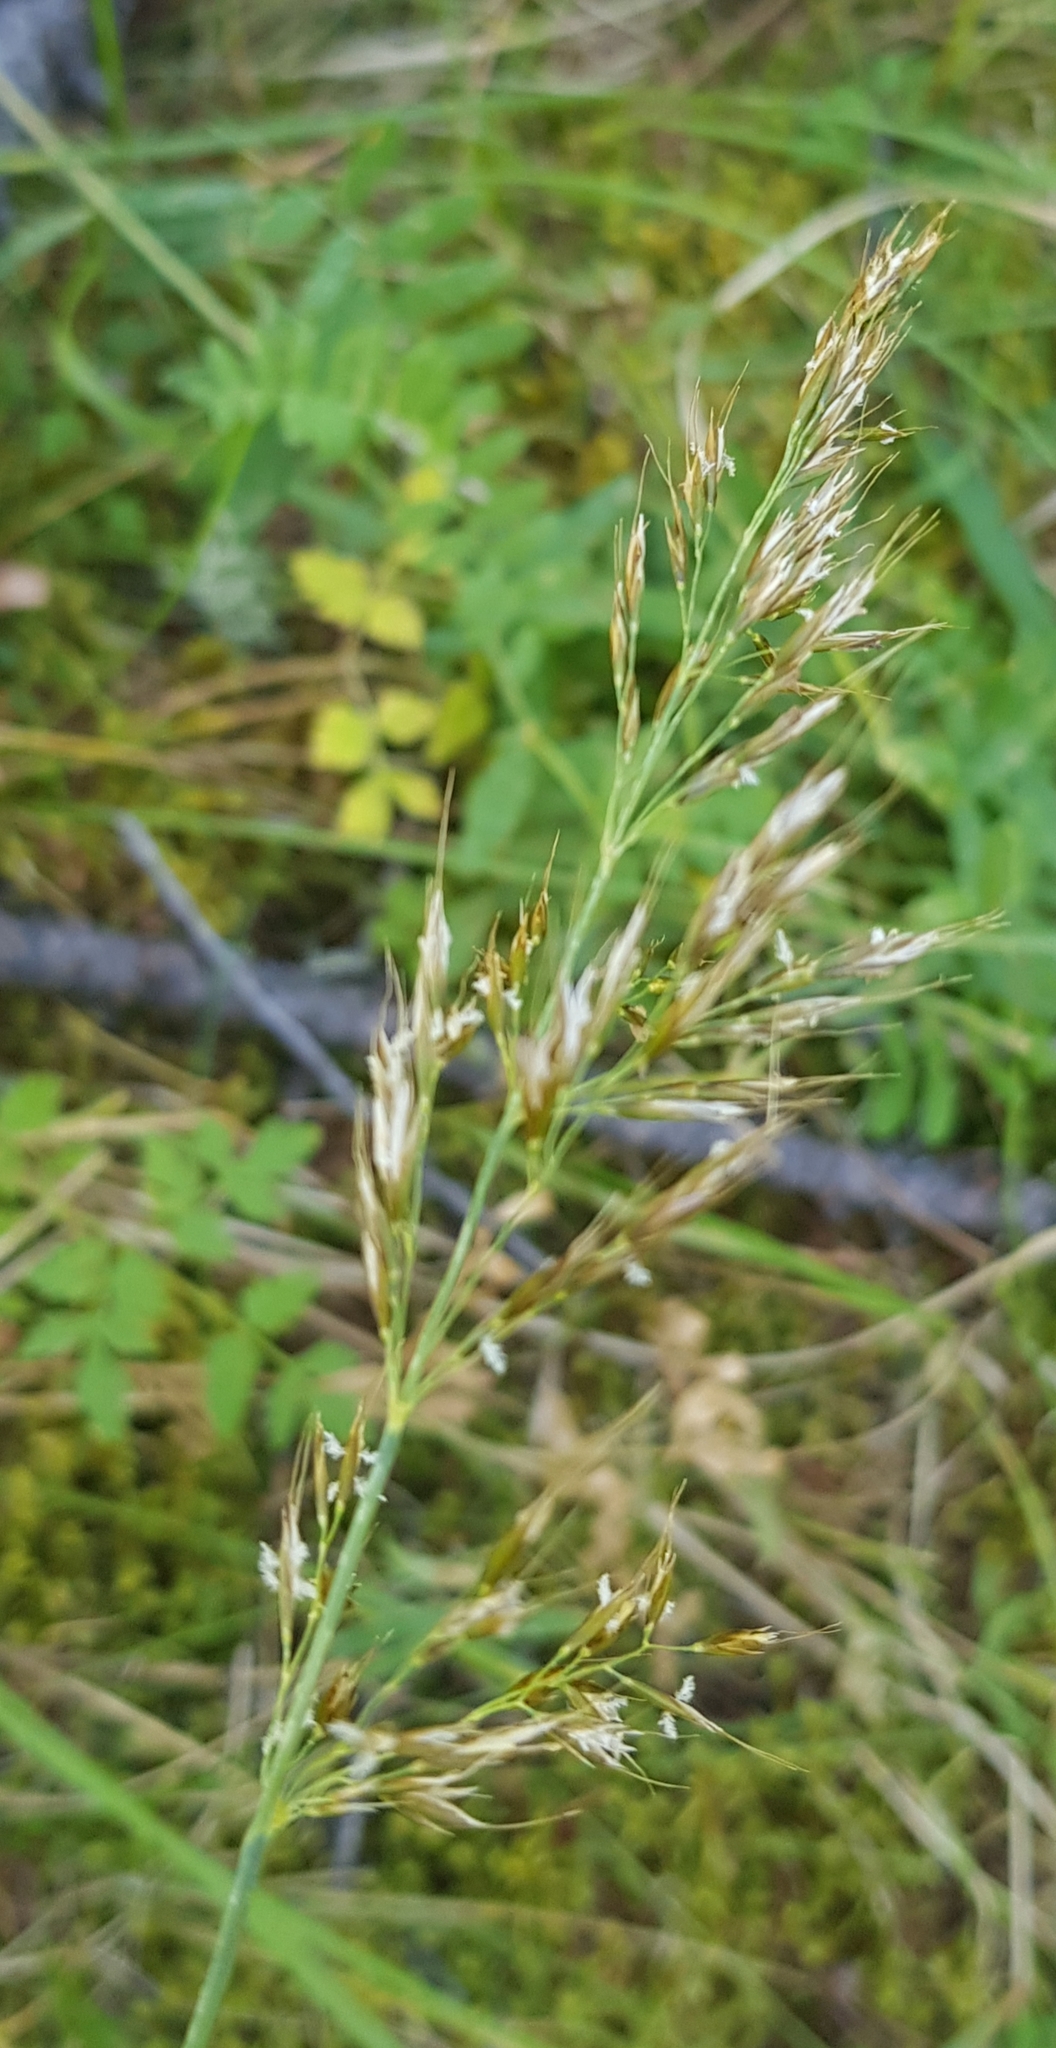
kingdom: Plantae
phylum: Tracheophyta
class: Liliopsida
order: Poales
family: Poaceae
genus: Achnatherum
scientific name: Achnatherum sibiricum
